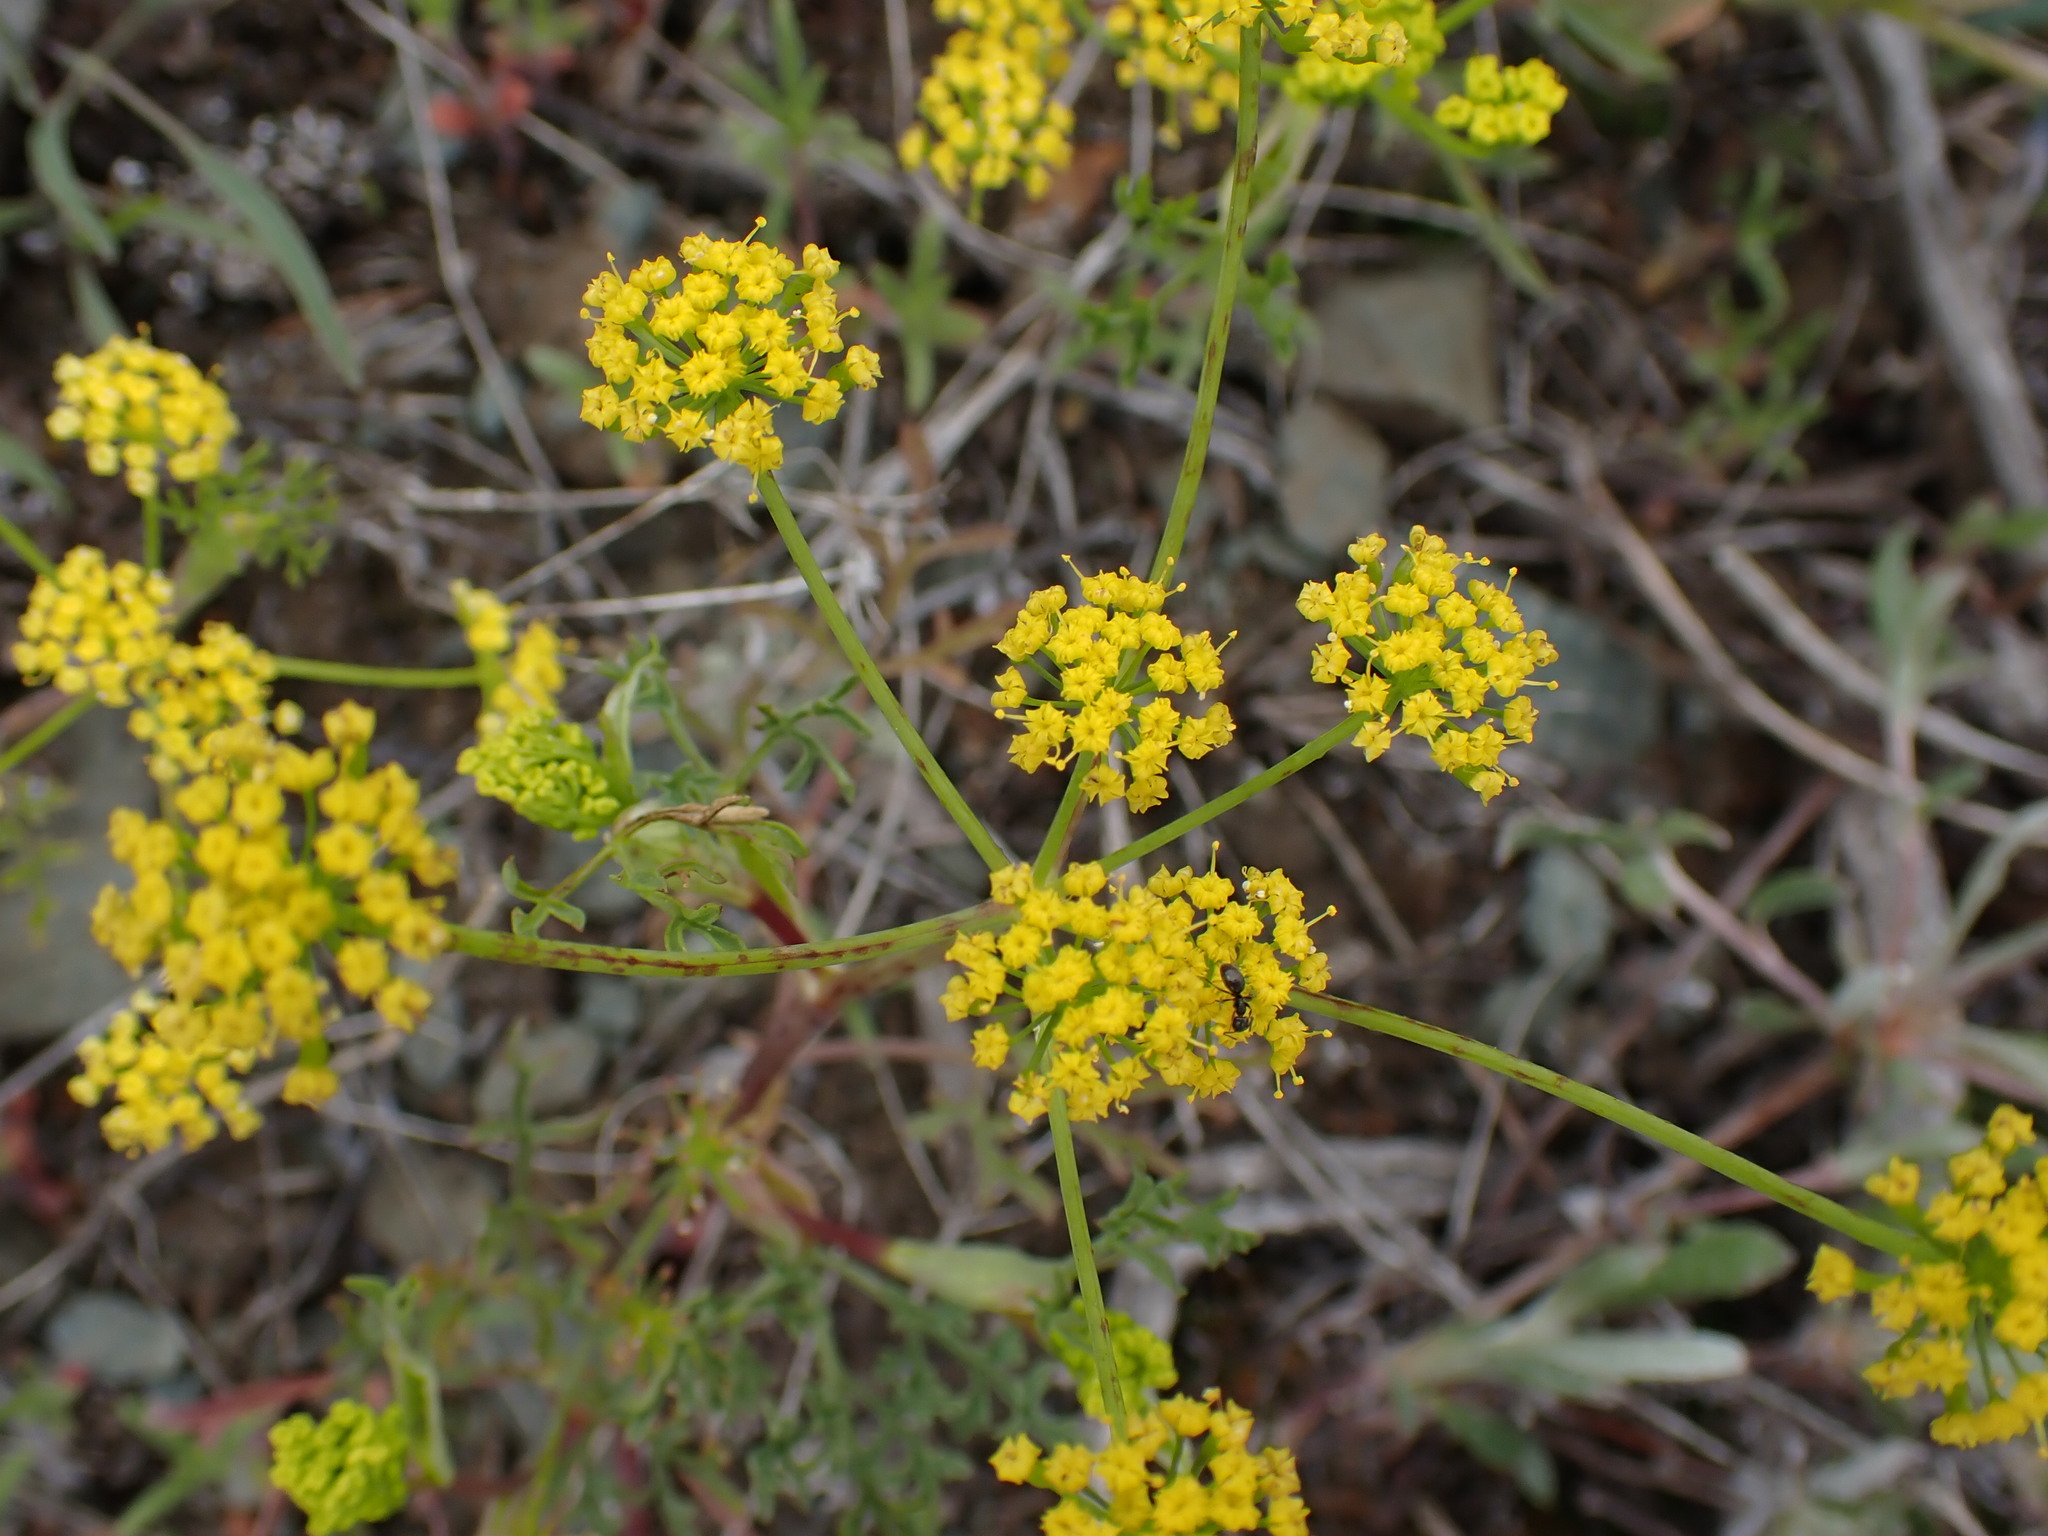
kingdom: Plantae
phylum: Tracheophyta
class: Magnoliopsida
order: Apiales
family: Apiaceae
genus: Lomatium
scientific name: Lomatium ambiguum
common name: Lacy lomatium
